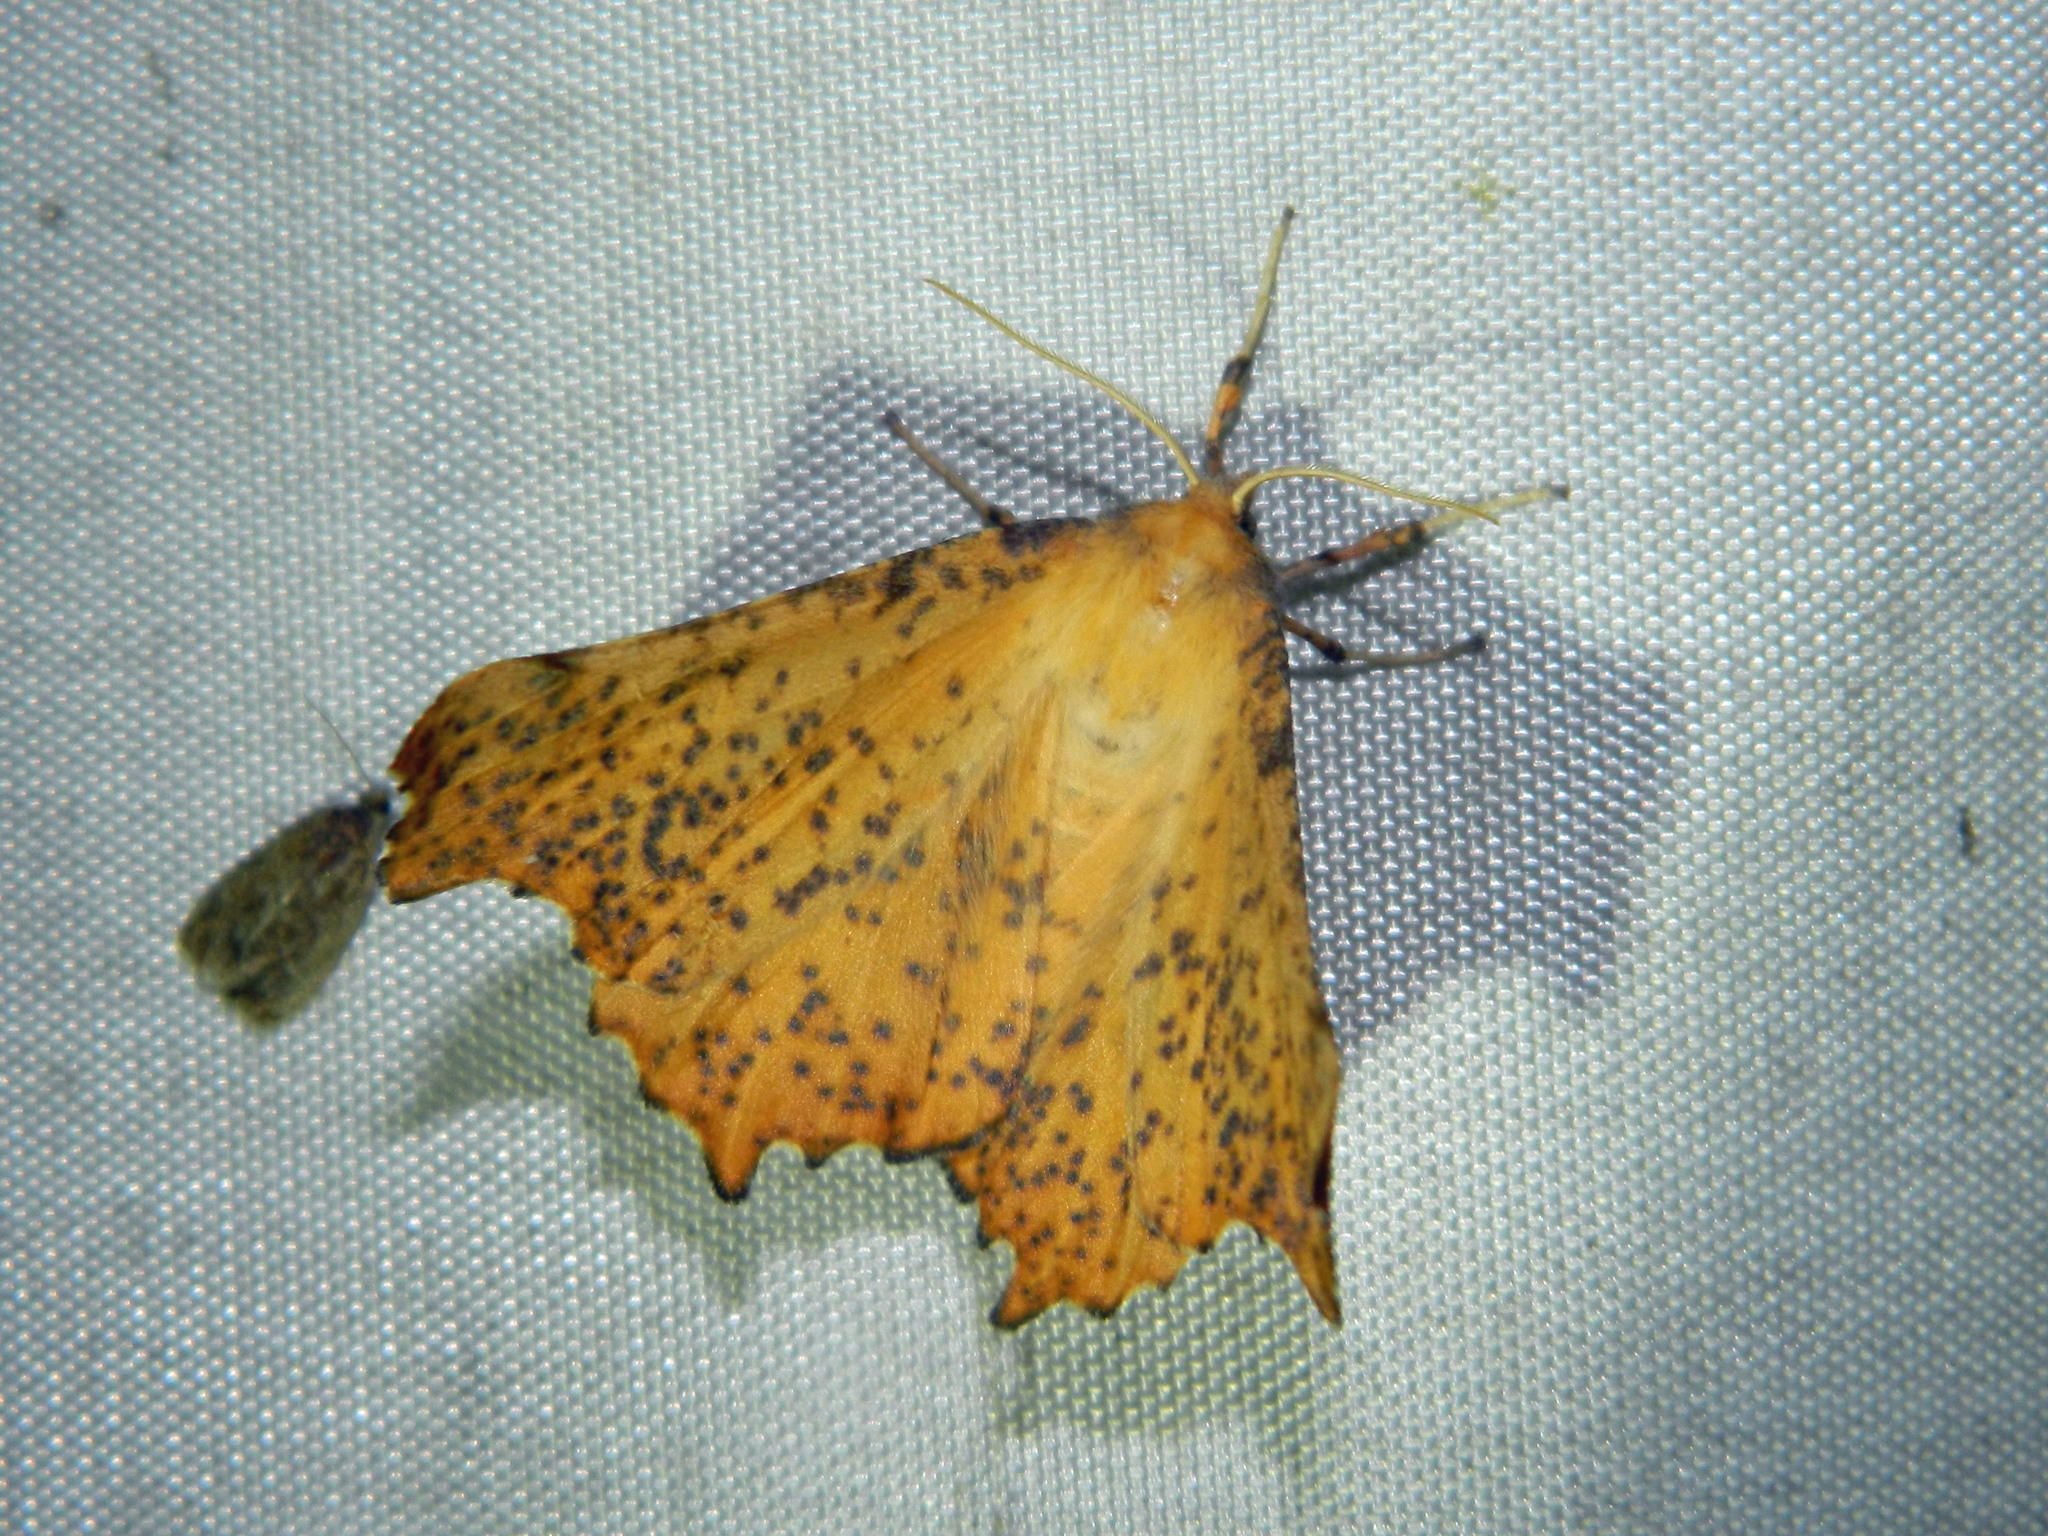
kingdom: Animalia
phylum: Arthropoda
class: Insecta
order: Lepidoptera
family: Geometridae
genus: Ennomos
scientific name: Ennomos magnaria
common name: Maple spanworm
